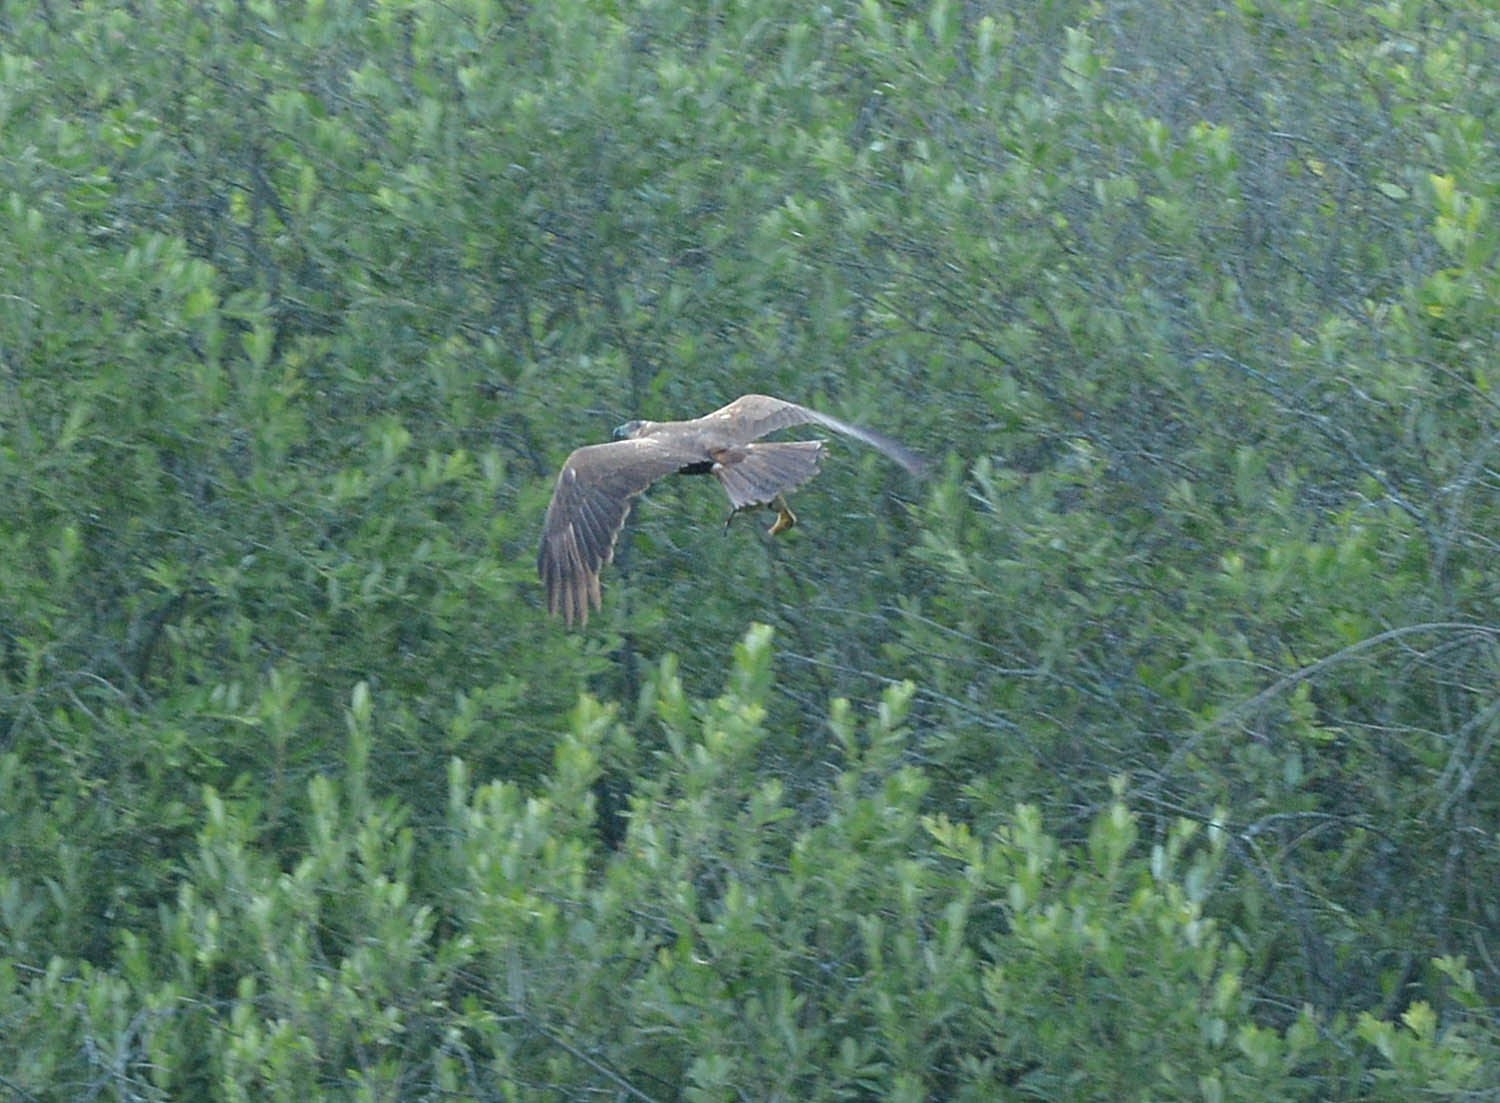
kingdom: Animalia
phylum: Chordata
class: Aves
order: Accipitriformes
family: Accipitridae
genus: Circus
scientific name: Circus aeruginosus
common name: Western marsh harrier
